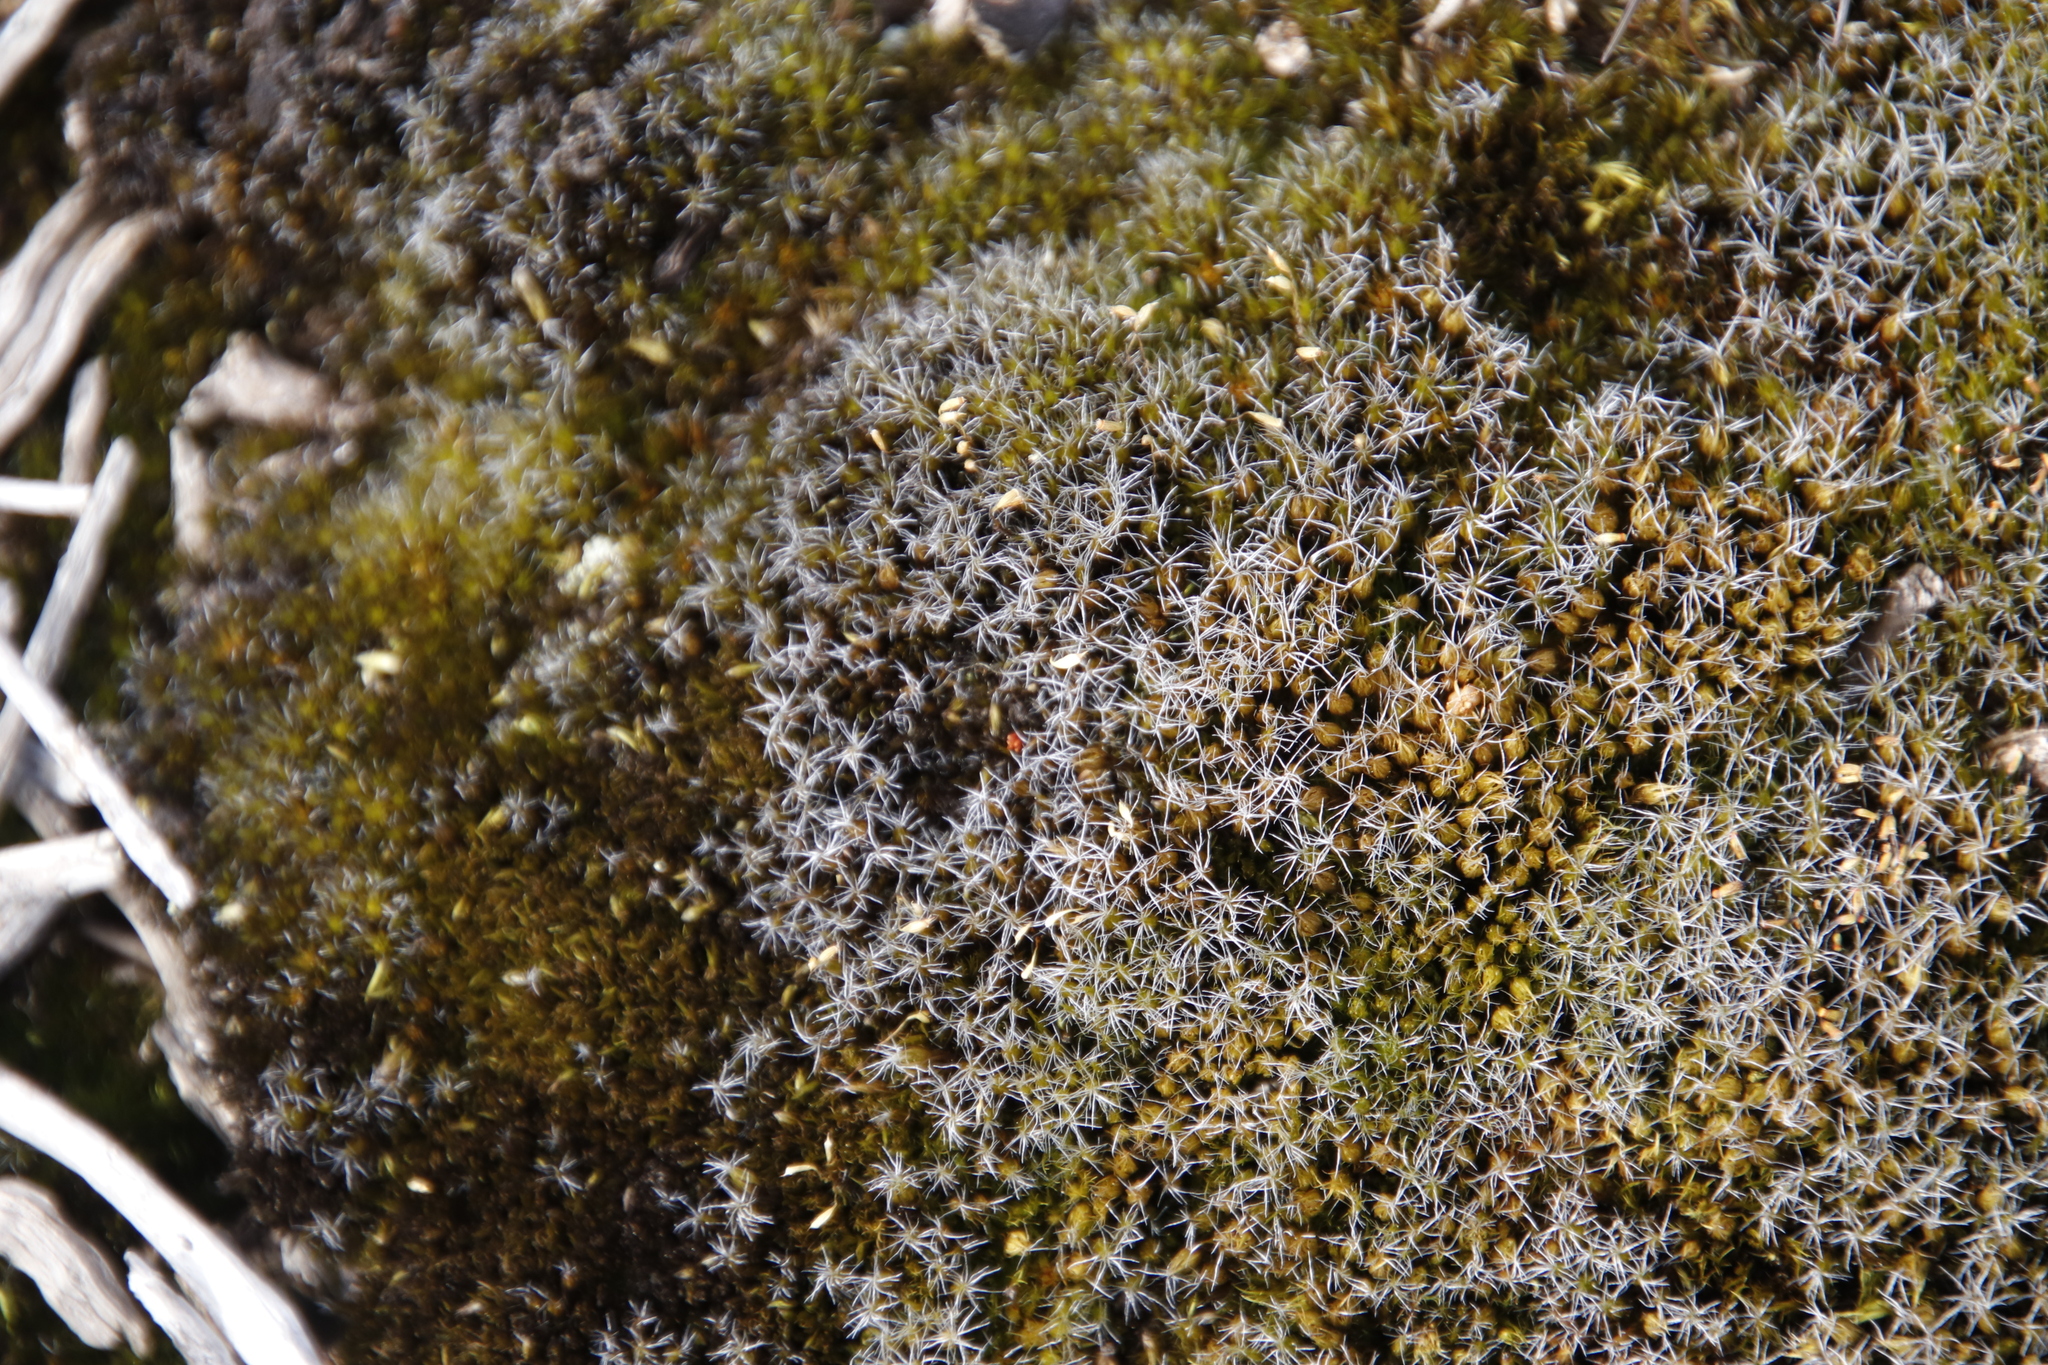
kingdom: Plantae
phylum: Bryophyta
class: Bryopsida
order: Dicranales
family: Leucobryaceae
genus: Campylopus
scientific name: Campylopus introflexus
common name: Heath star moss
